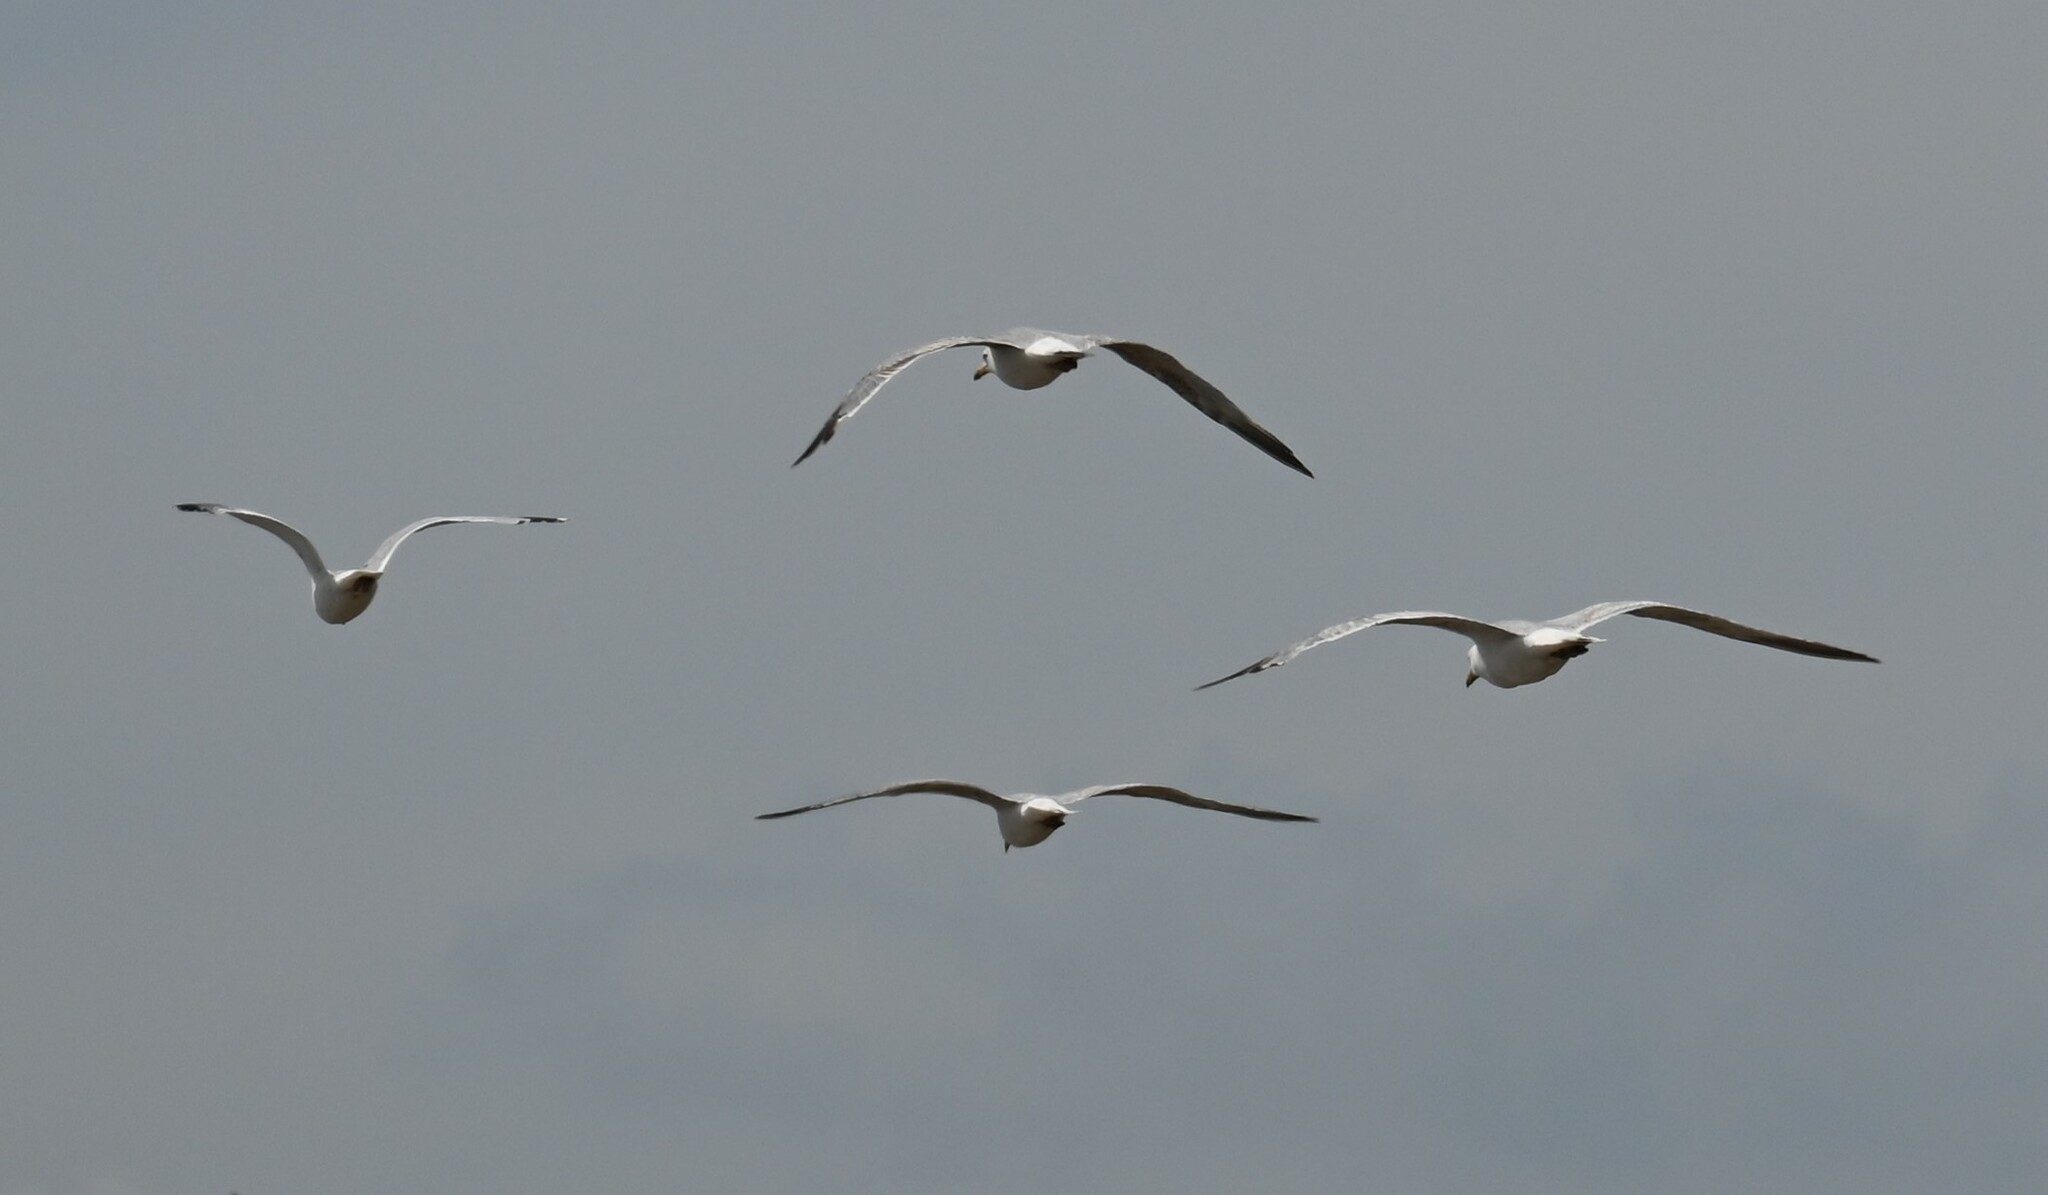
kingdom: Animalia
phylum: Chordata
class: Aves
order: Charadriiformes
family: Laridae
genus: Larus
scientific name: Larus argentatus
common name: Herring gull
